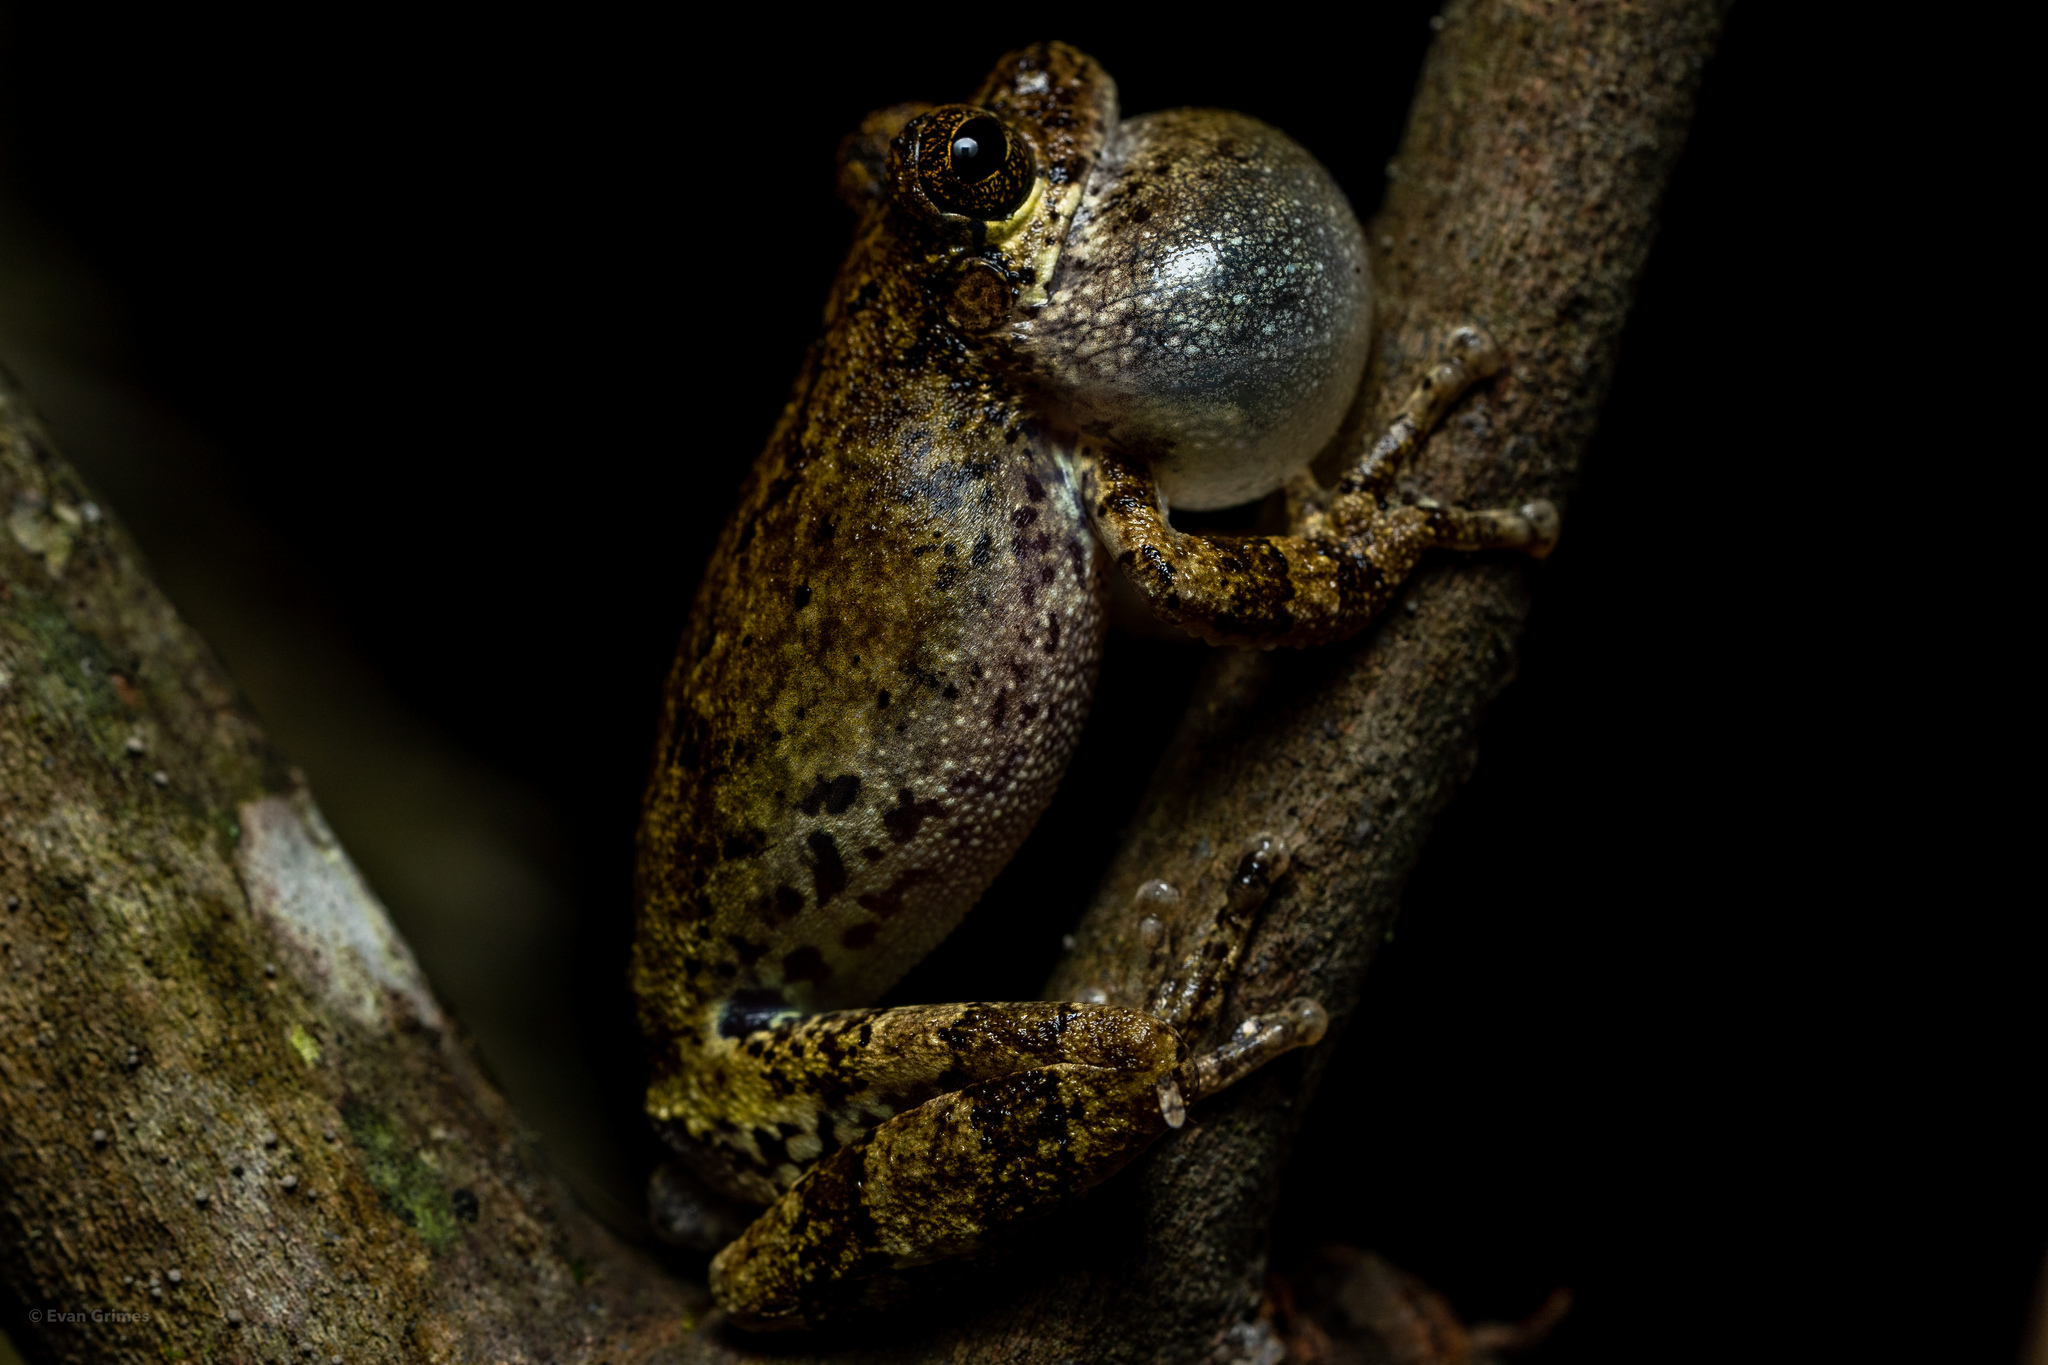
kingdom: Animalia
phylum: Chordata
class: Amphibia
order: Anura
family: Hylidae
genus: Dryophytes
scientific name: Dryophytes avivoca
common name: Bird-voiced treefrog
